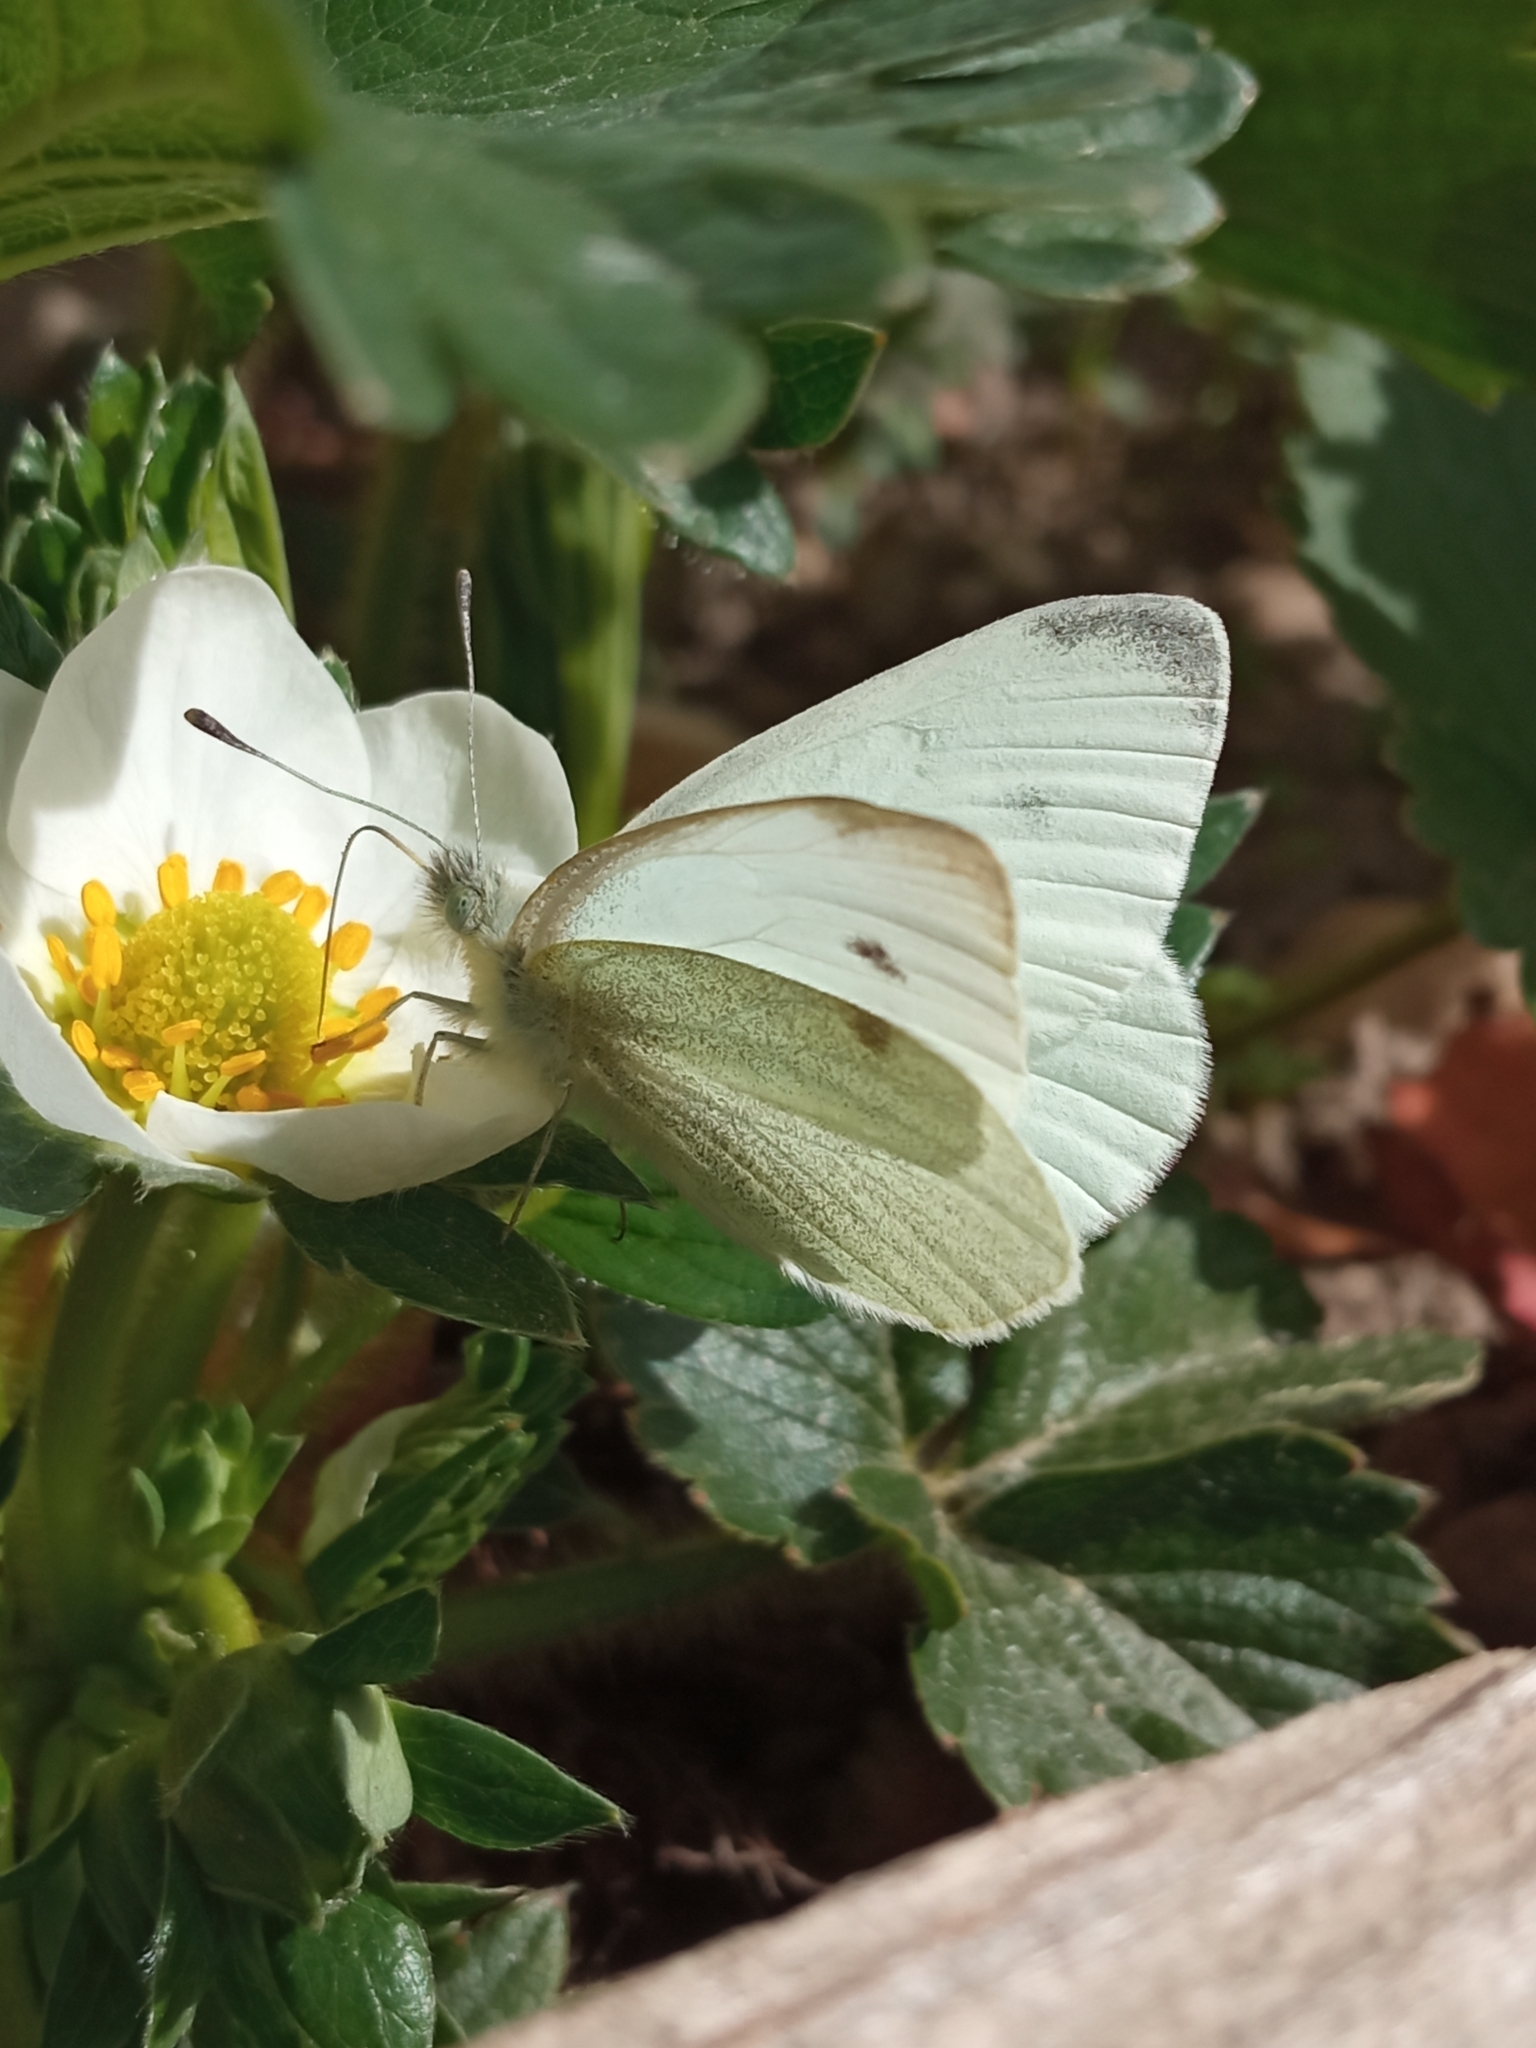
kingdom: Animalia
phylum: Arthropoda
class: Insecta
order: Lepidoptera
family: Pieridae
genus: Pieris
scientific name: Pieris rapae
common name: Small white
